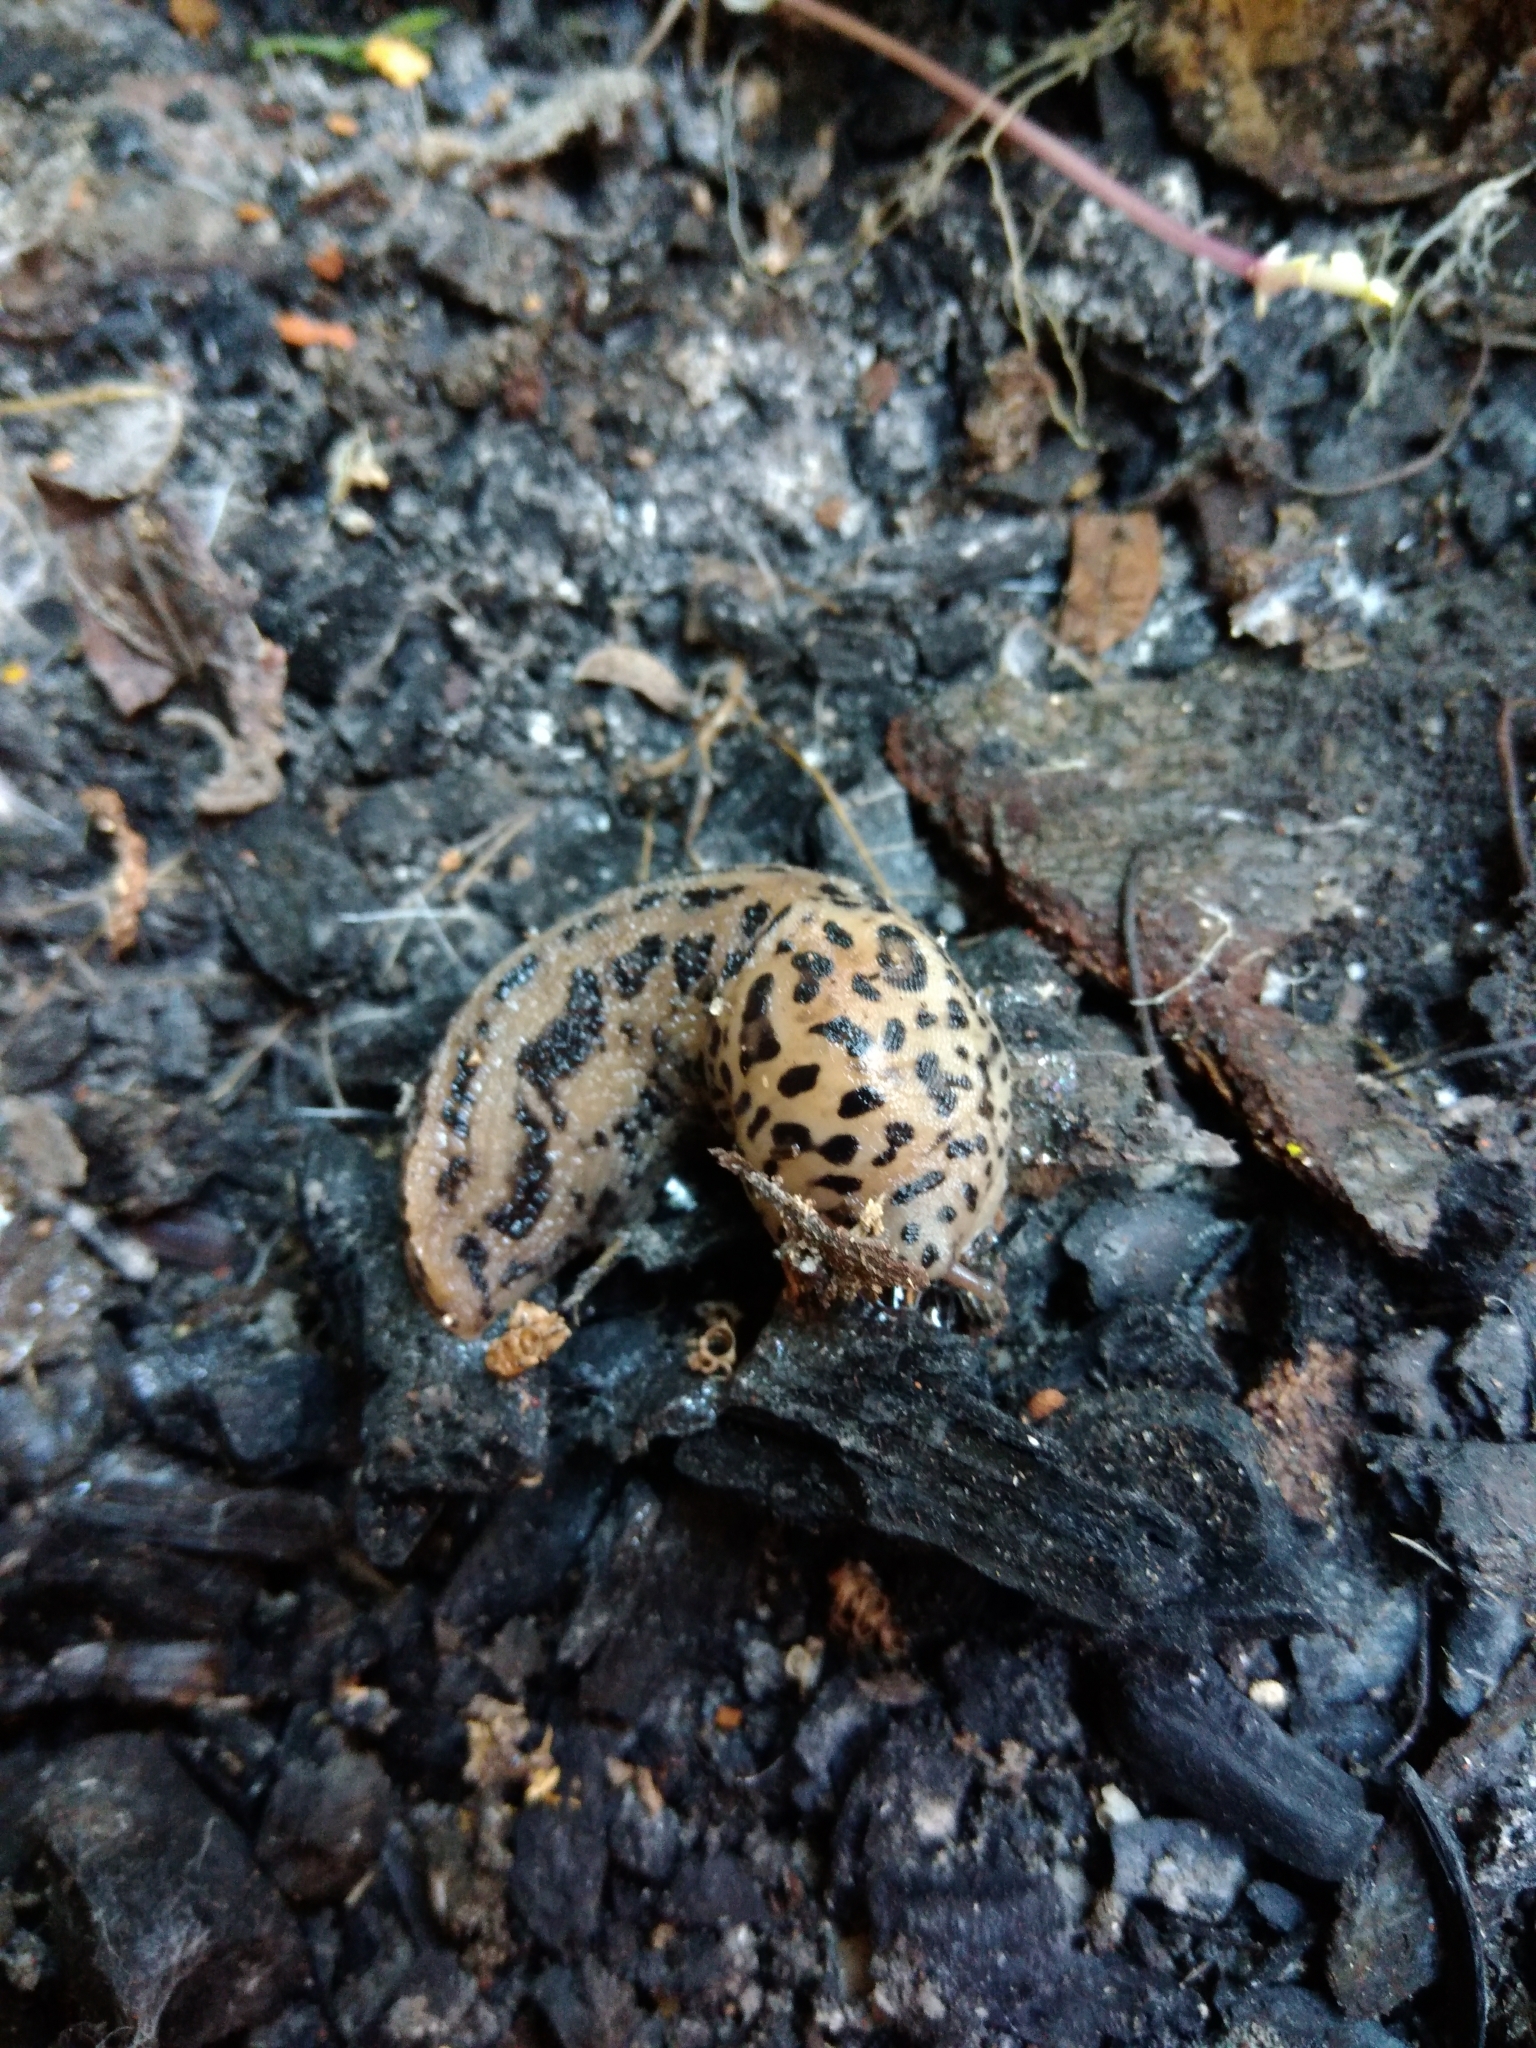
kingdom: Animalia
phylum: Mollusca
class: Gastropoda
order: Stylommatophora
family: Limacidae
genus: Limax
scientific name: Limax maximus
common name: Great grey slug
